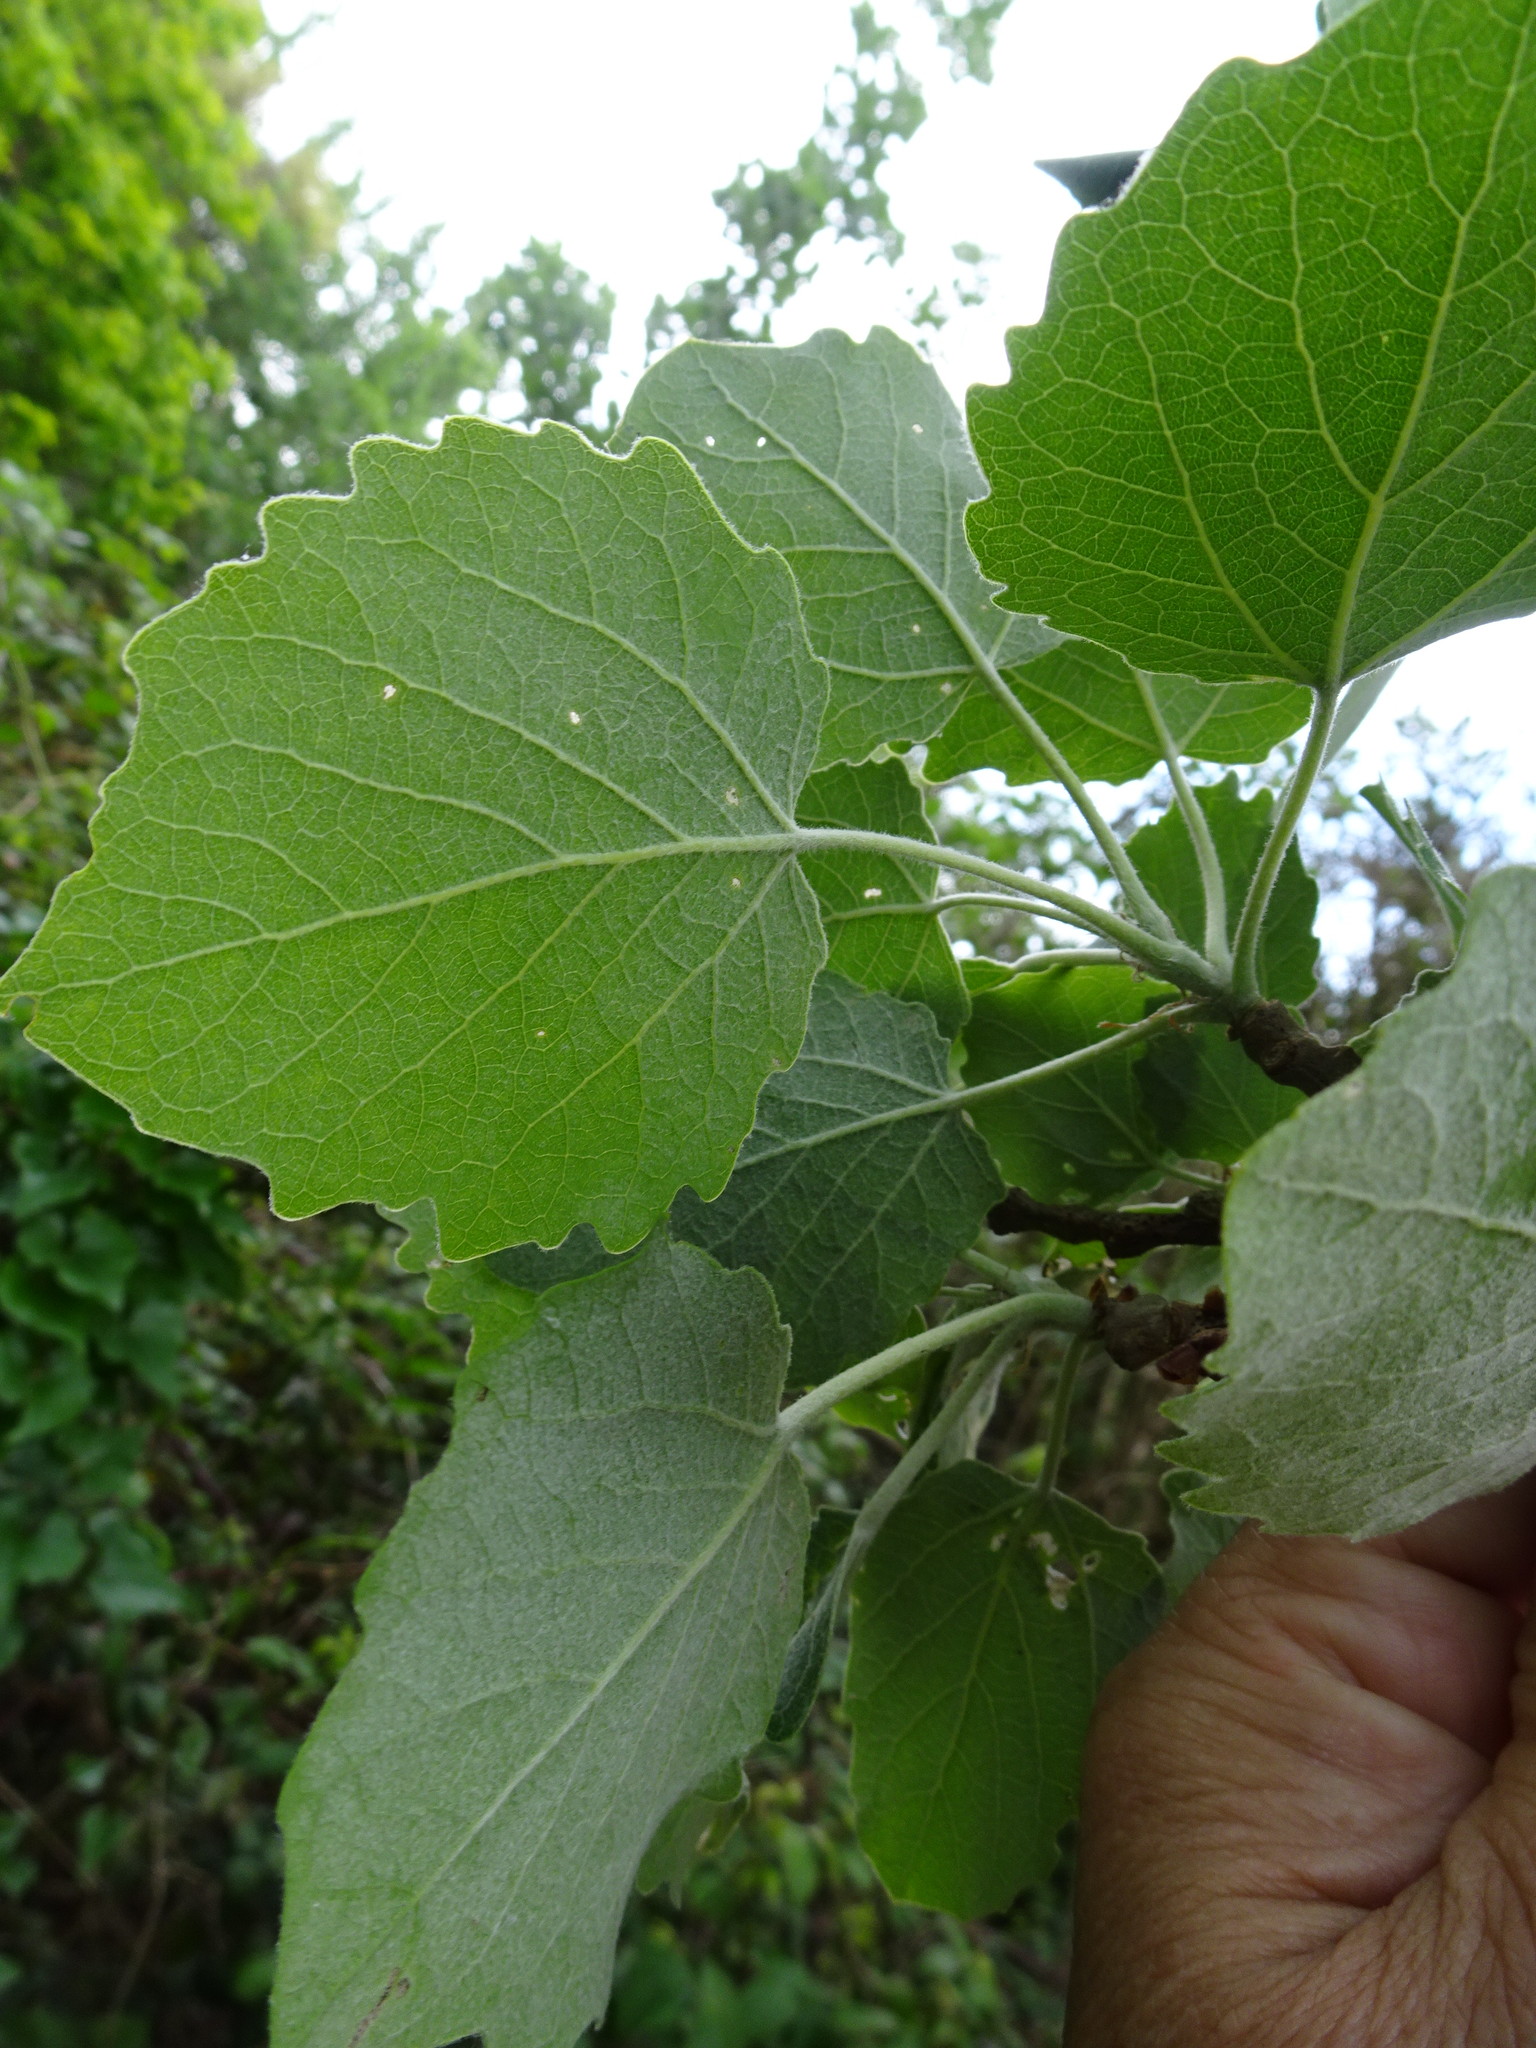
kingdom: Plantae
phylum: Tracheophyta
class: Magnoliopsida
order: Malpighiales
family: Salicaceae
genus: Populus
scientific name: Populus tremula
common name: European aspen
